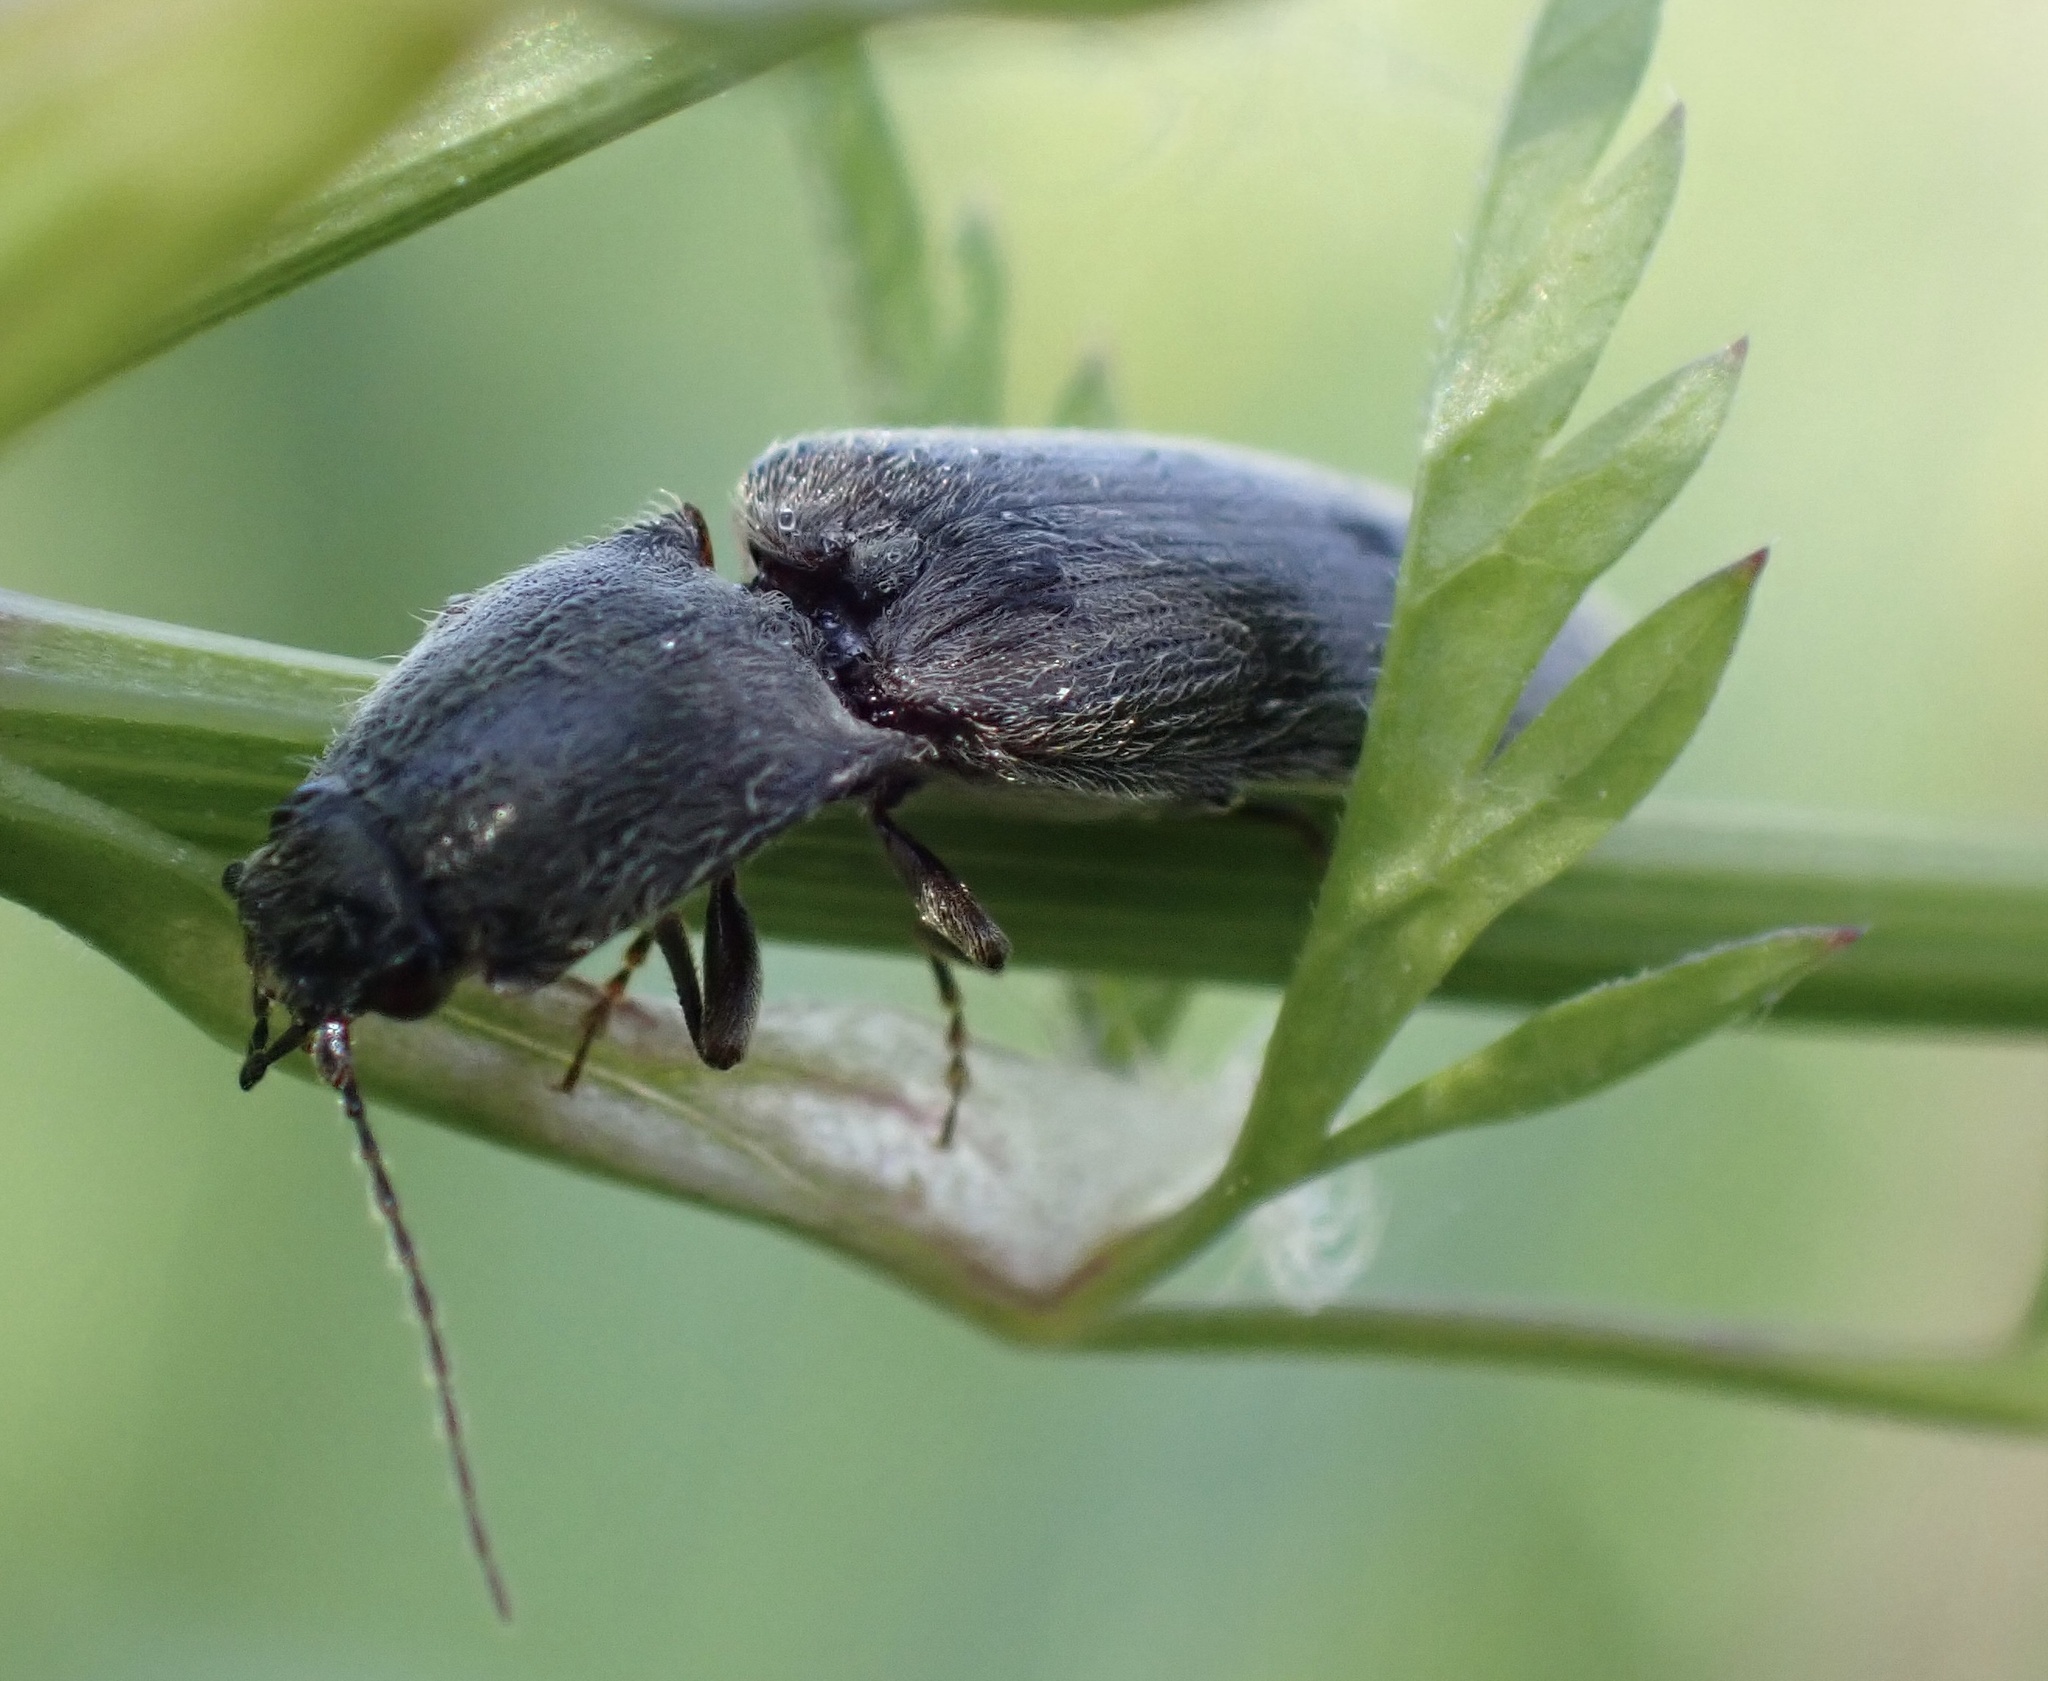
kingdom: Animalia
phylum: Arthropoda
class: Insecta
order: Coleoptera
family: Elateridae
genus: Athous
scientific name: Athous haemorrhoidalis
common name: Red-brown click beetle
